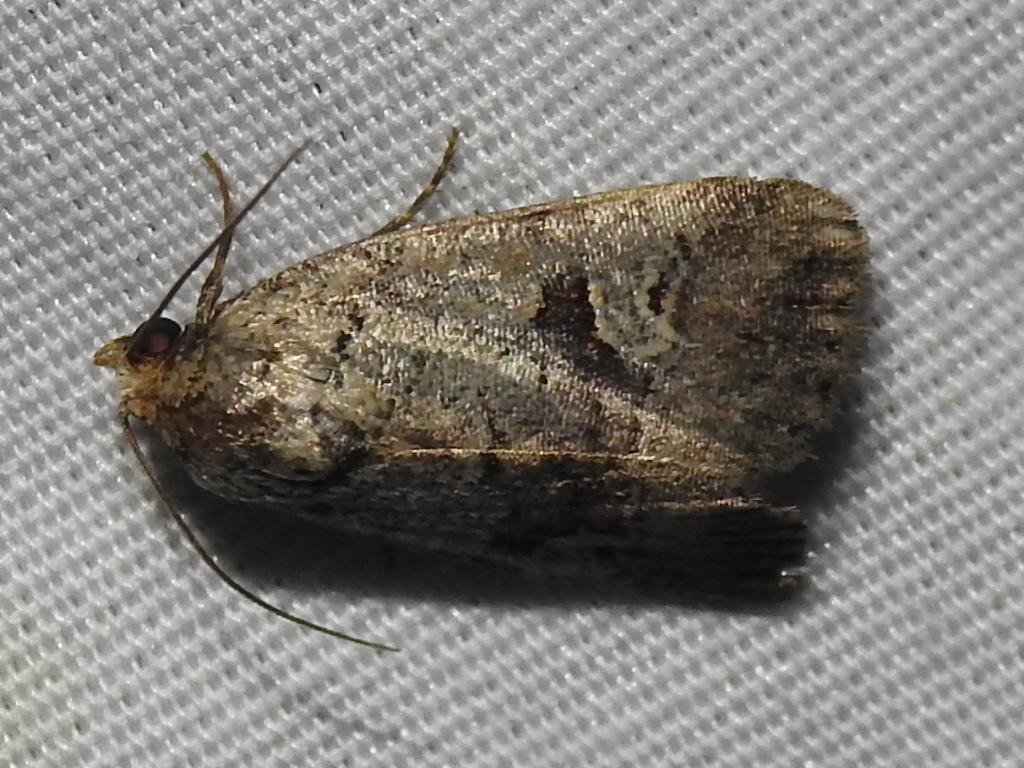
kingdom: Animalia
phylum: Arthropoda
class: Insecta
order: Lepidoptera
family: Noctuidae
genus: Elaphria
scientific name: Elaphria festivoides
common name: Festive midget
